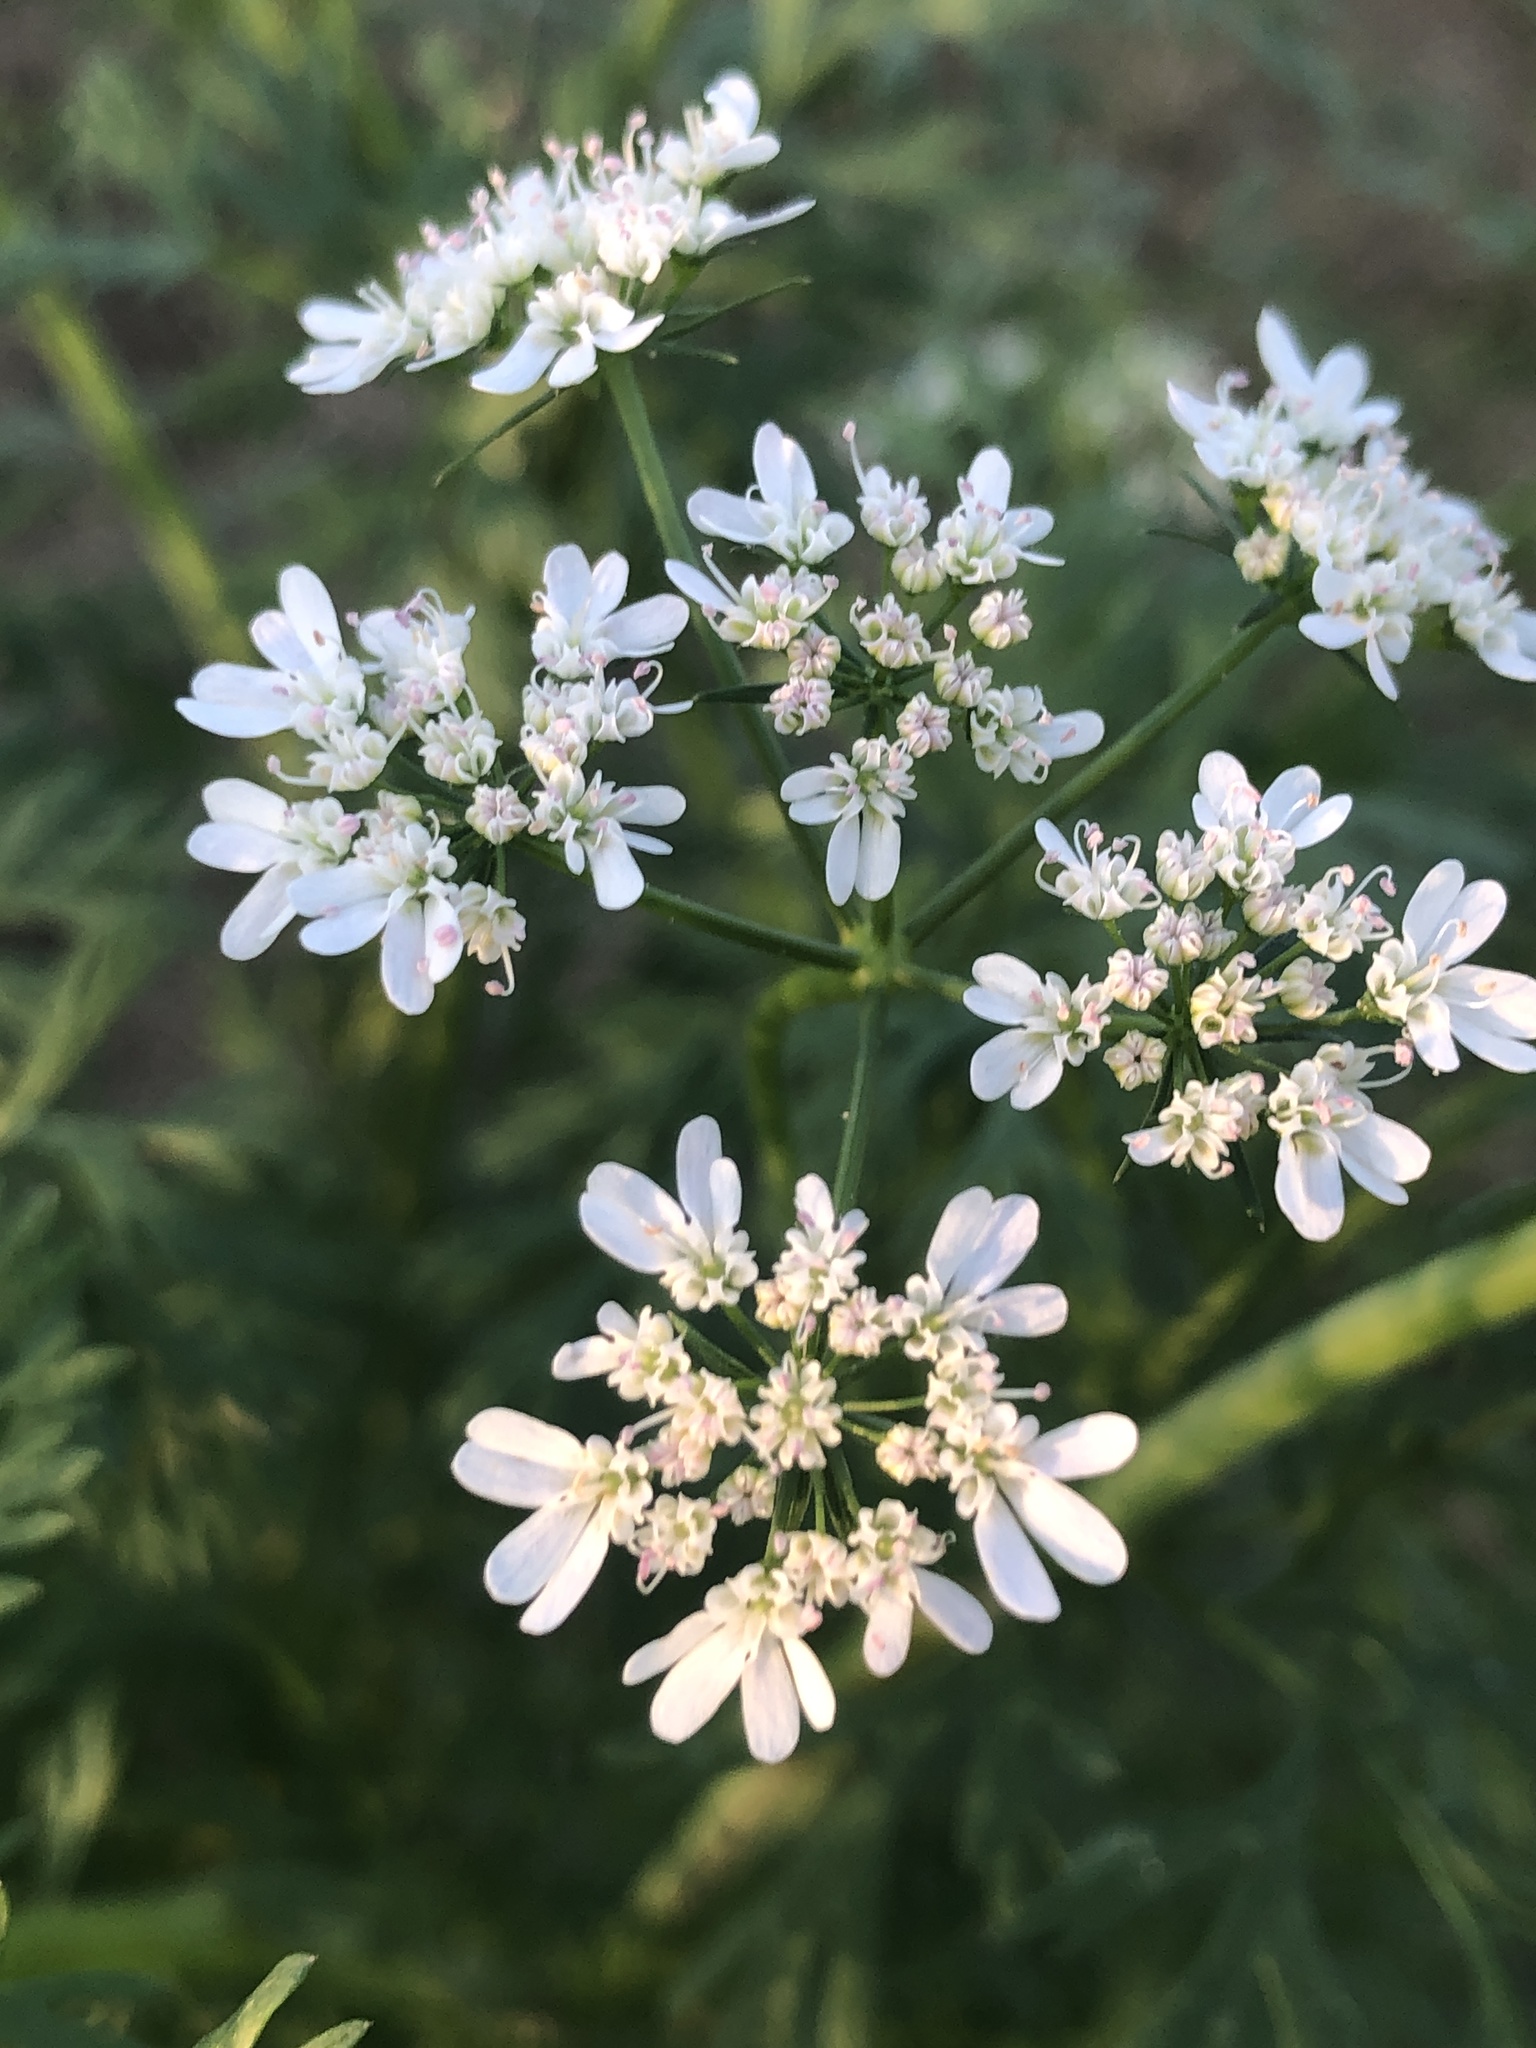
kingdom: Plantae
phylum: Tracheophyta
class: Magnoliopsida
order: Apiales
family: Apiaceae
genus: Coriandrum
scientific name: Coriandrum sativum
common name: Coriander
